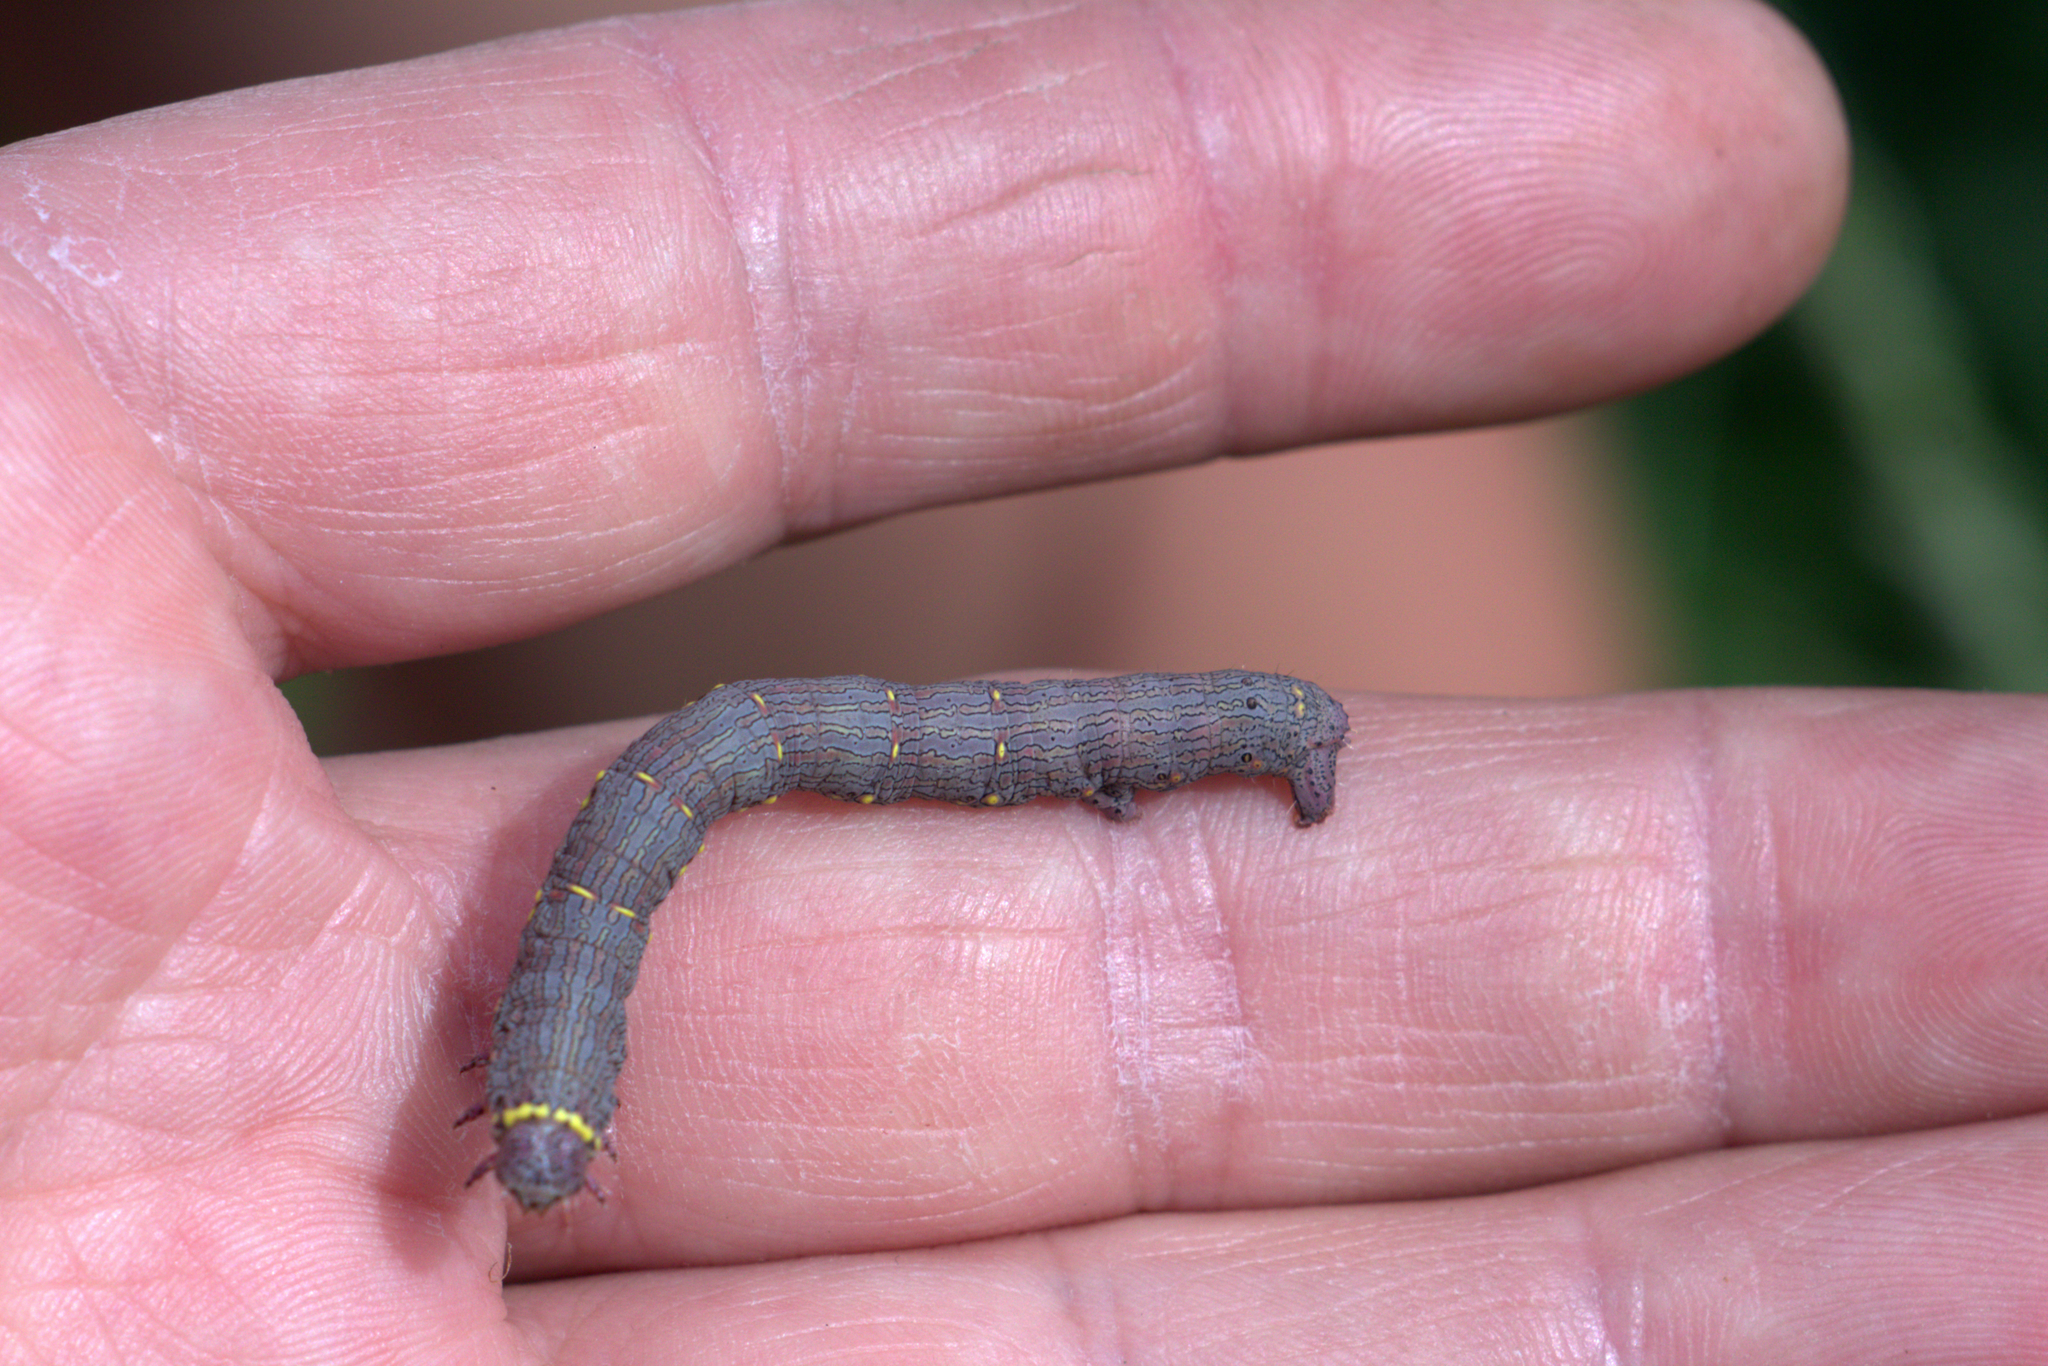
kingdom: Animalia
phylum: Arthropoda
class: Insecta
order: Lepidoptera
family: Geometridae
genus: Lycia
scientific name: Lycia hirtaria
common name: Brindled beauty
